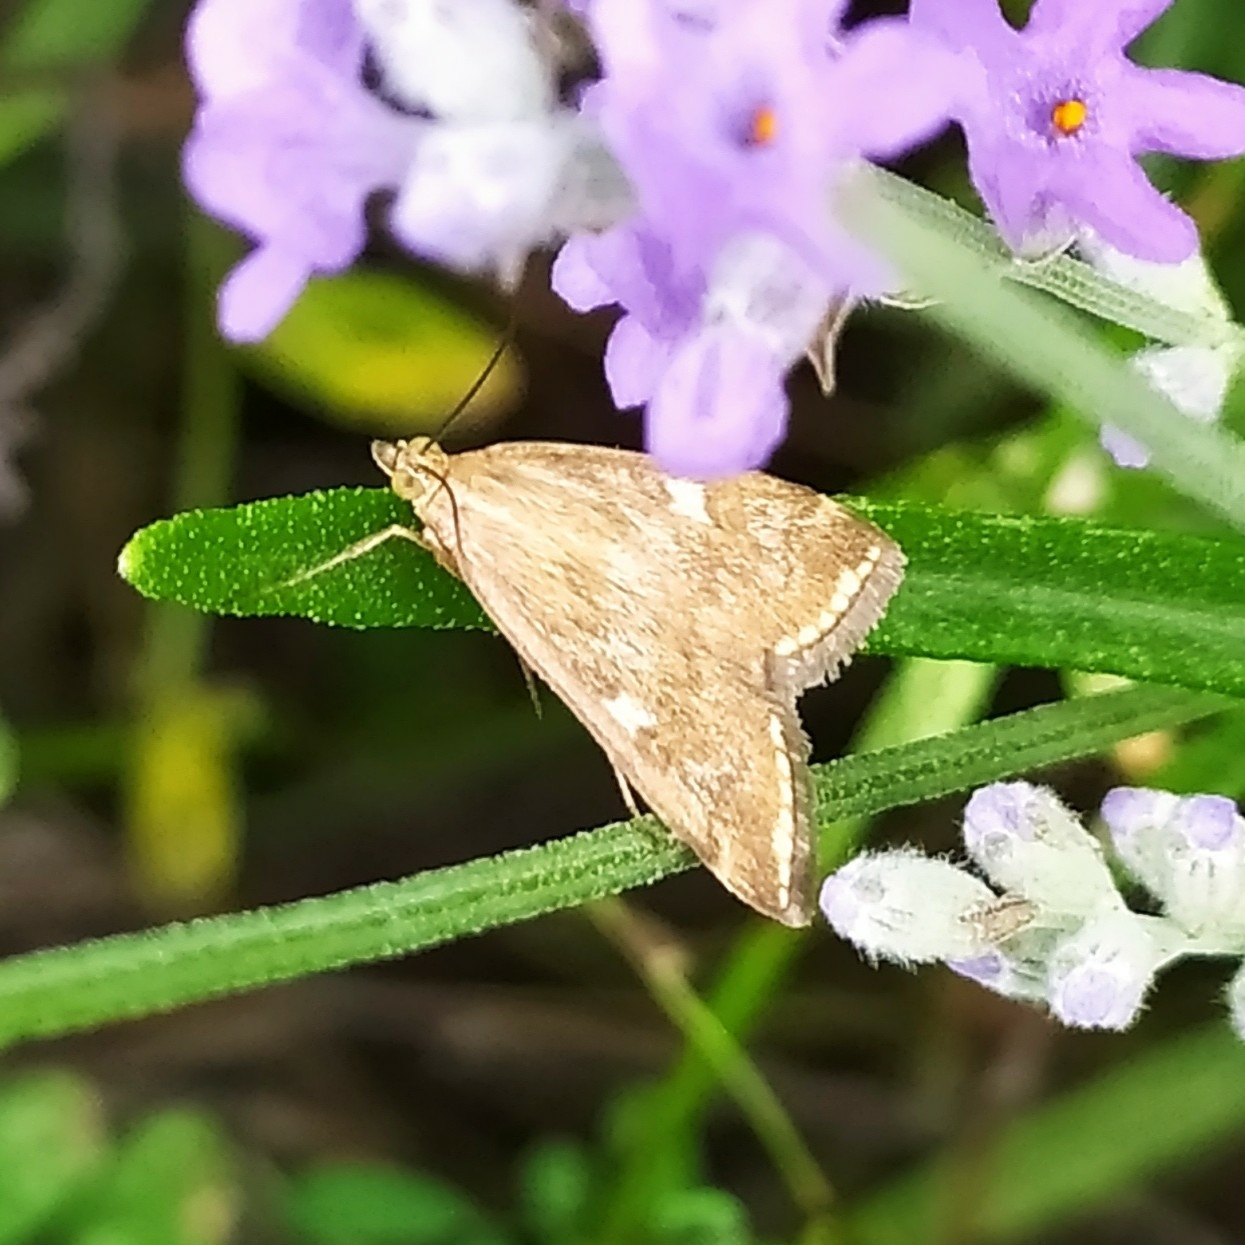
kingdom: Animalia
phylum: Arthropoda
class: Insecta
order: Lepidoptera
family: Crambidae
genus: Loxostege
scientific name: Loxostege sticticalis
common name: Crambid moth
